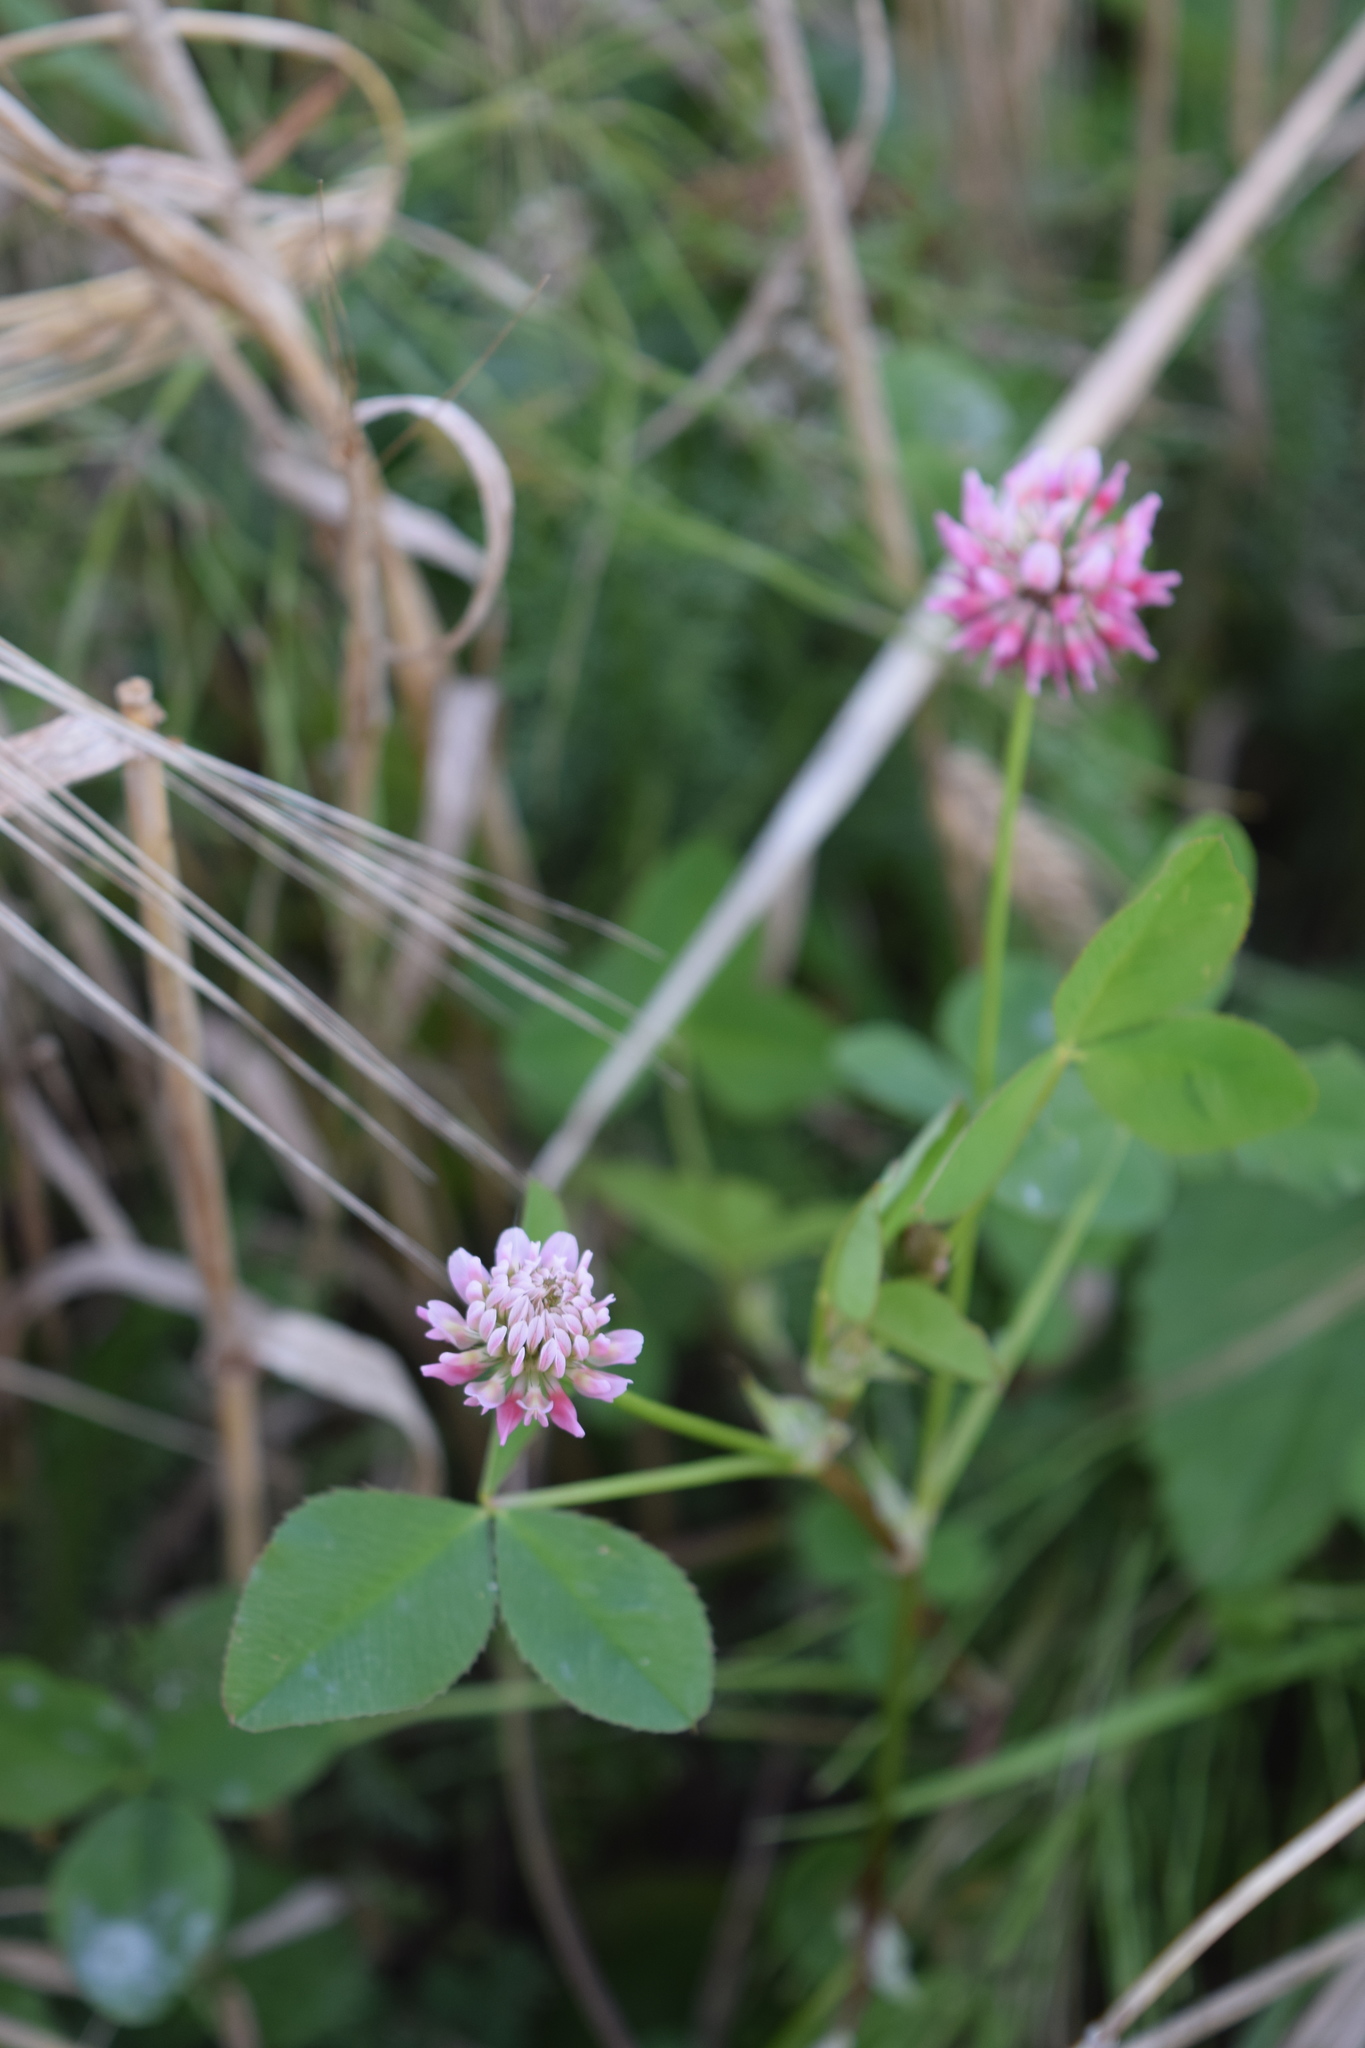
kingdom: Plantae
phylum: Tracheophyta
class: Magnoliopsida
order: Fabales
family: Fabaceae
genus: Trifolium
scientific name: Trifolium hybridum
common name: Alsike clover
